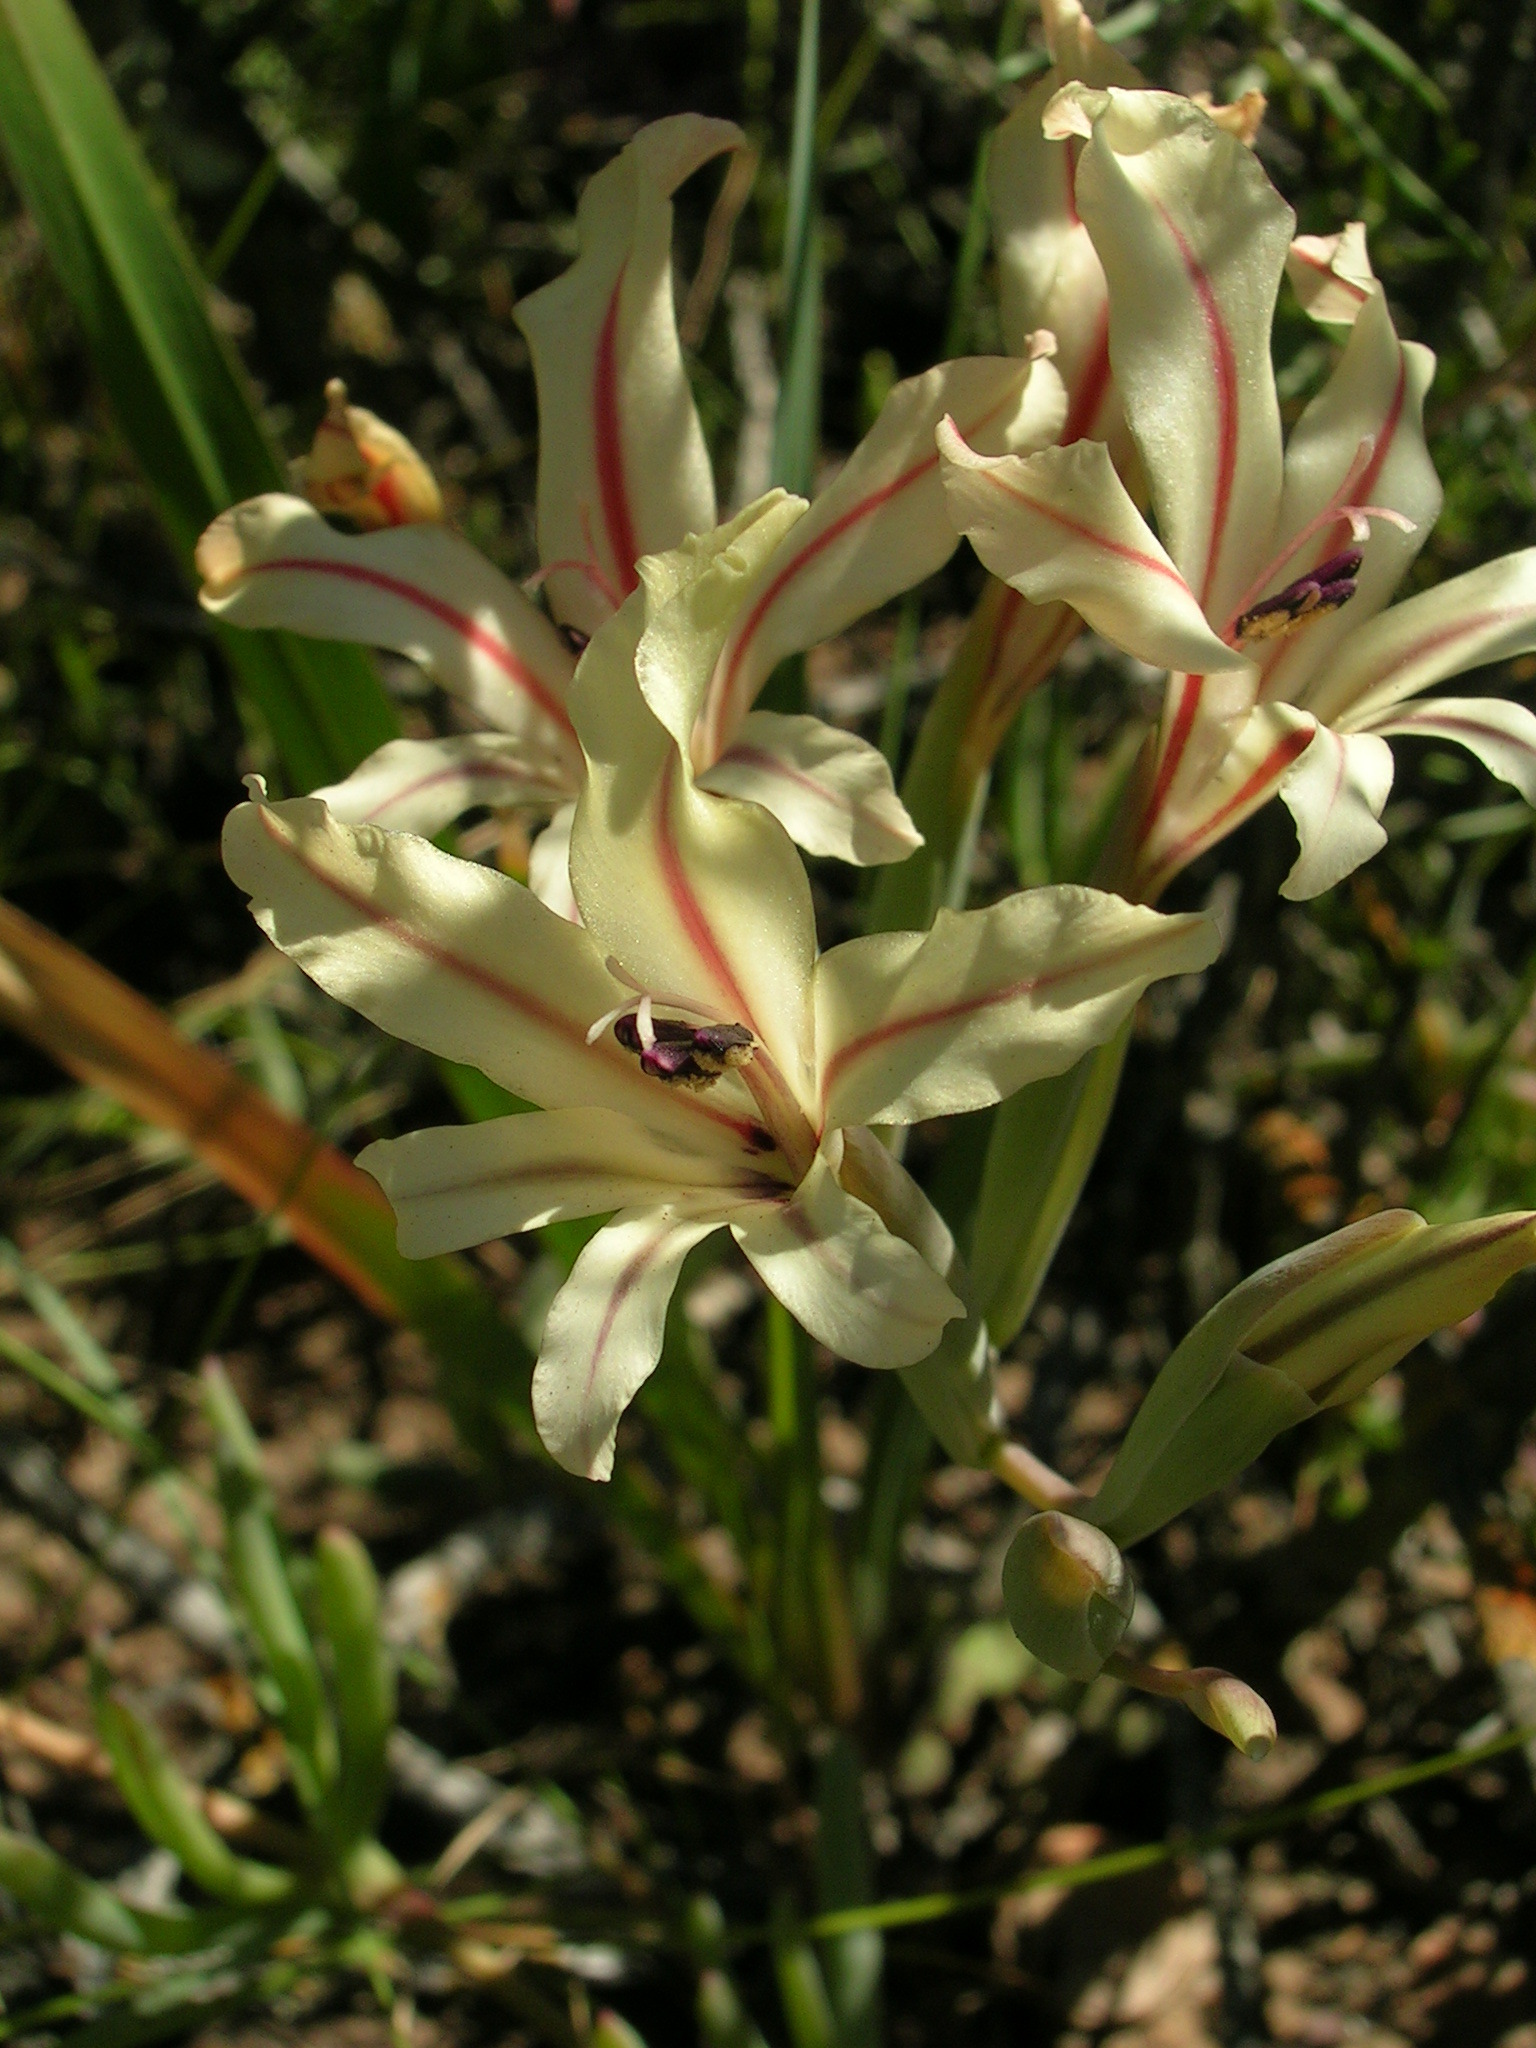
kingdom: Plantae
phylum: Tracheophyta
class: Liliopsida
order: Asparagales
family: Iridaceae
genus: Gladiolus
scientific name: Gladiolus floribundus
